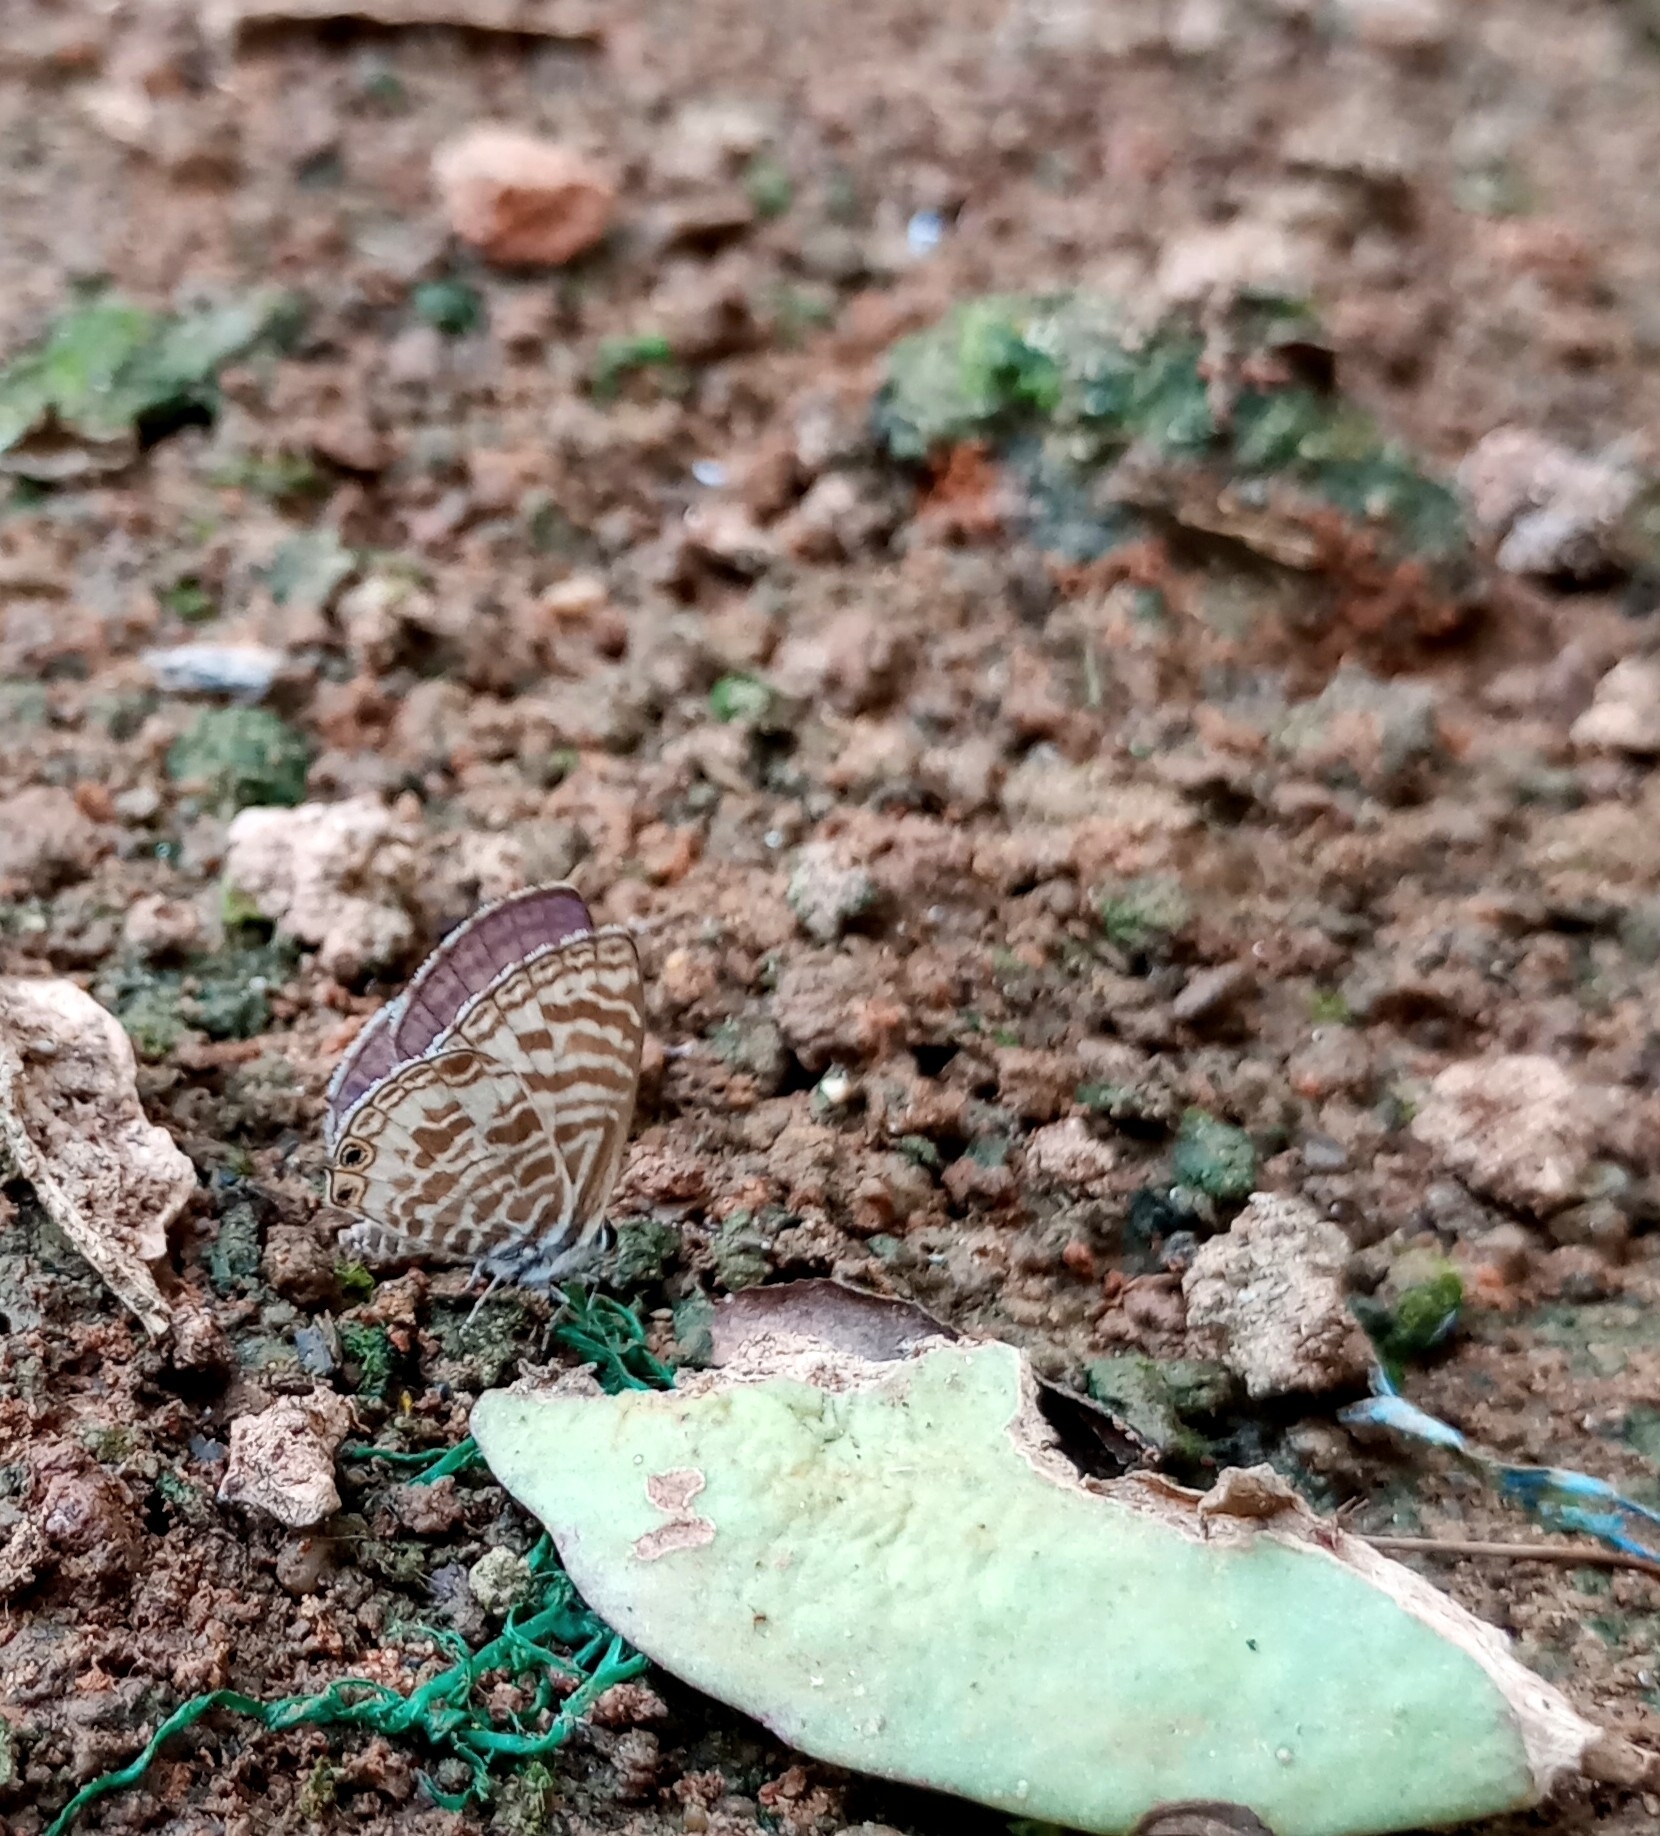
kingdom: Animalia
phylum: Arthropoda
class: Insecta
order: Lepidoptera
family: Lycaenidae
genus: Leptotes
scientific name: Leptotes plinius
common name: Zebra blue
